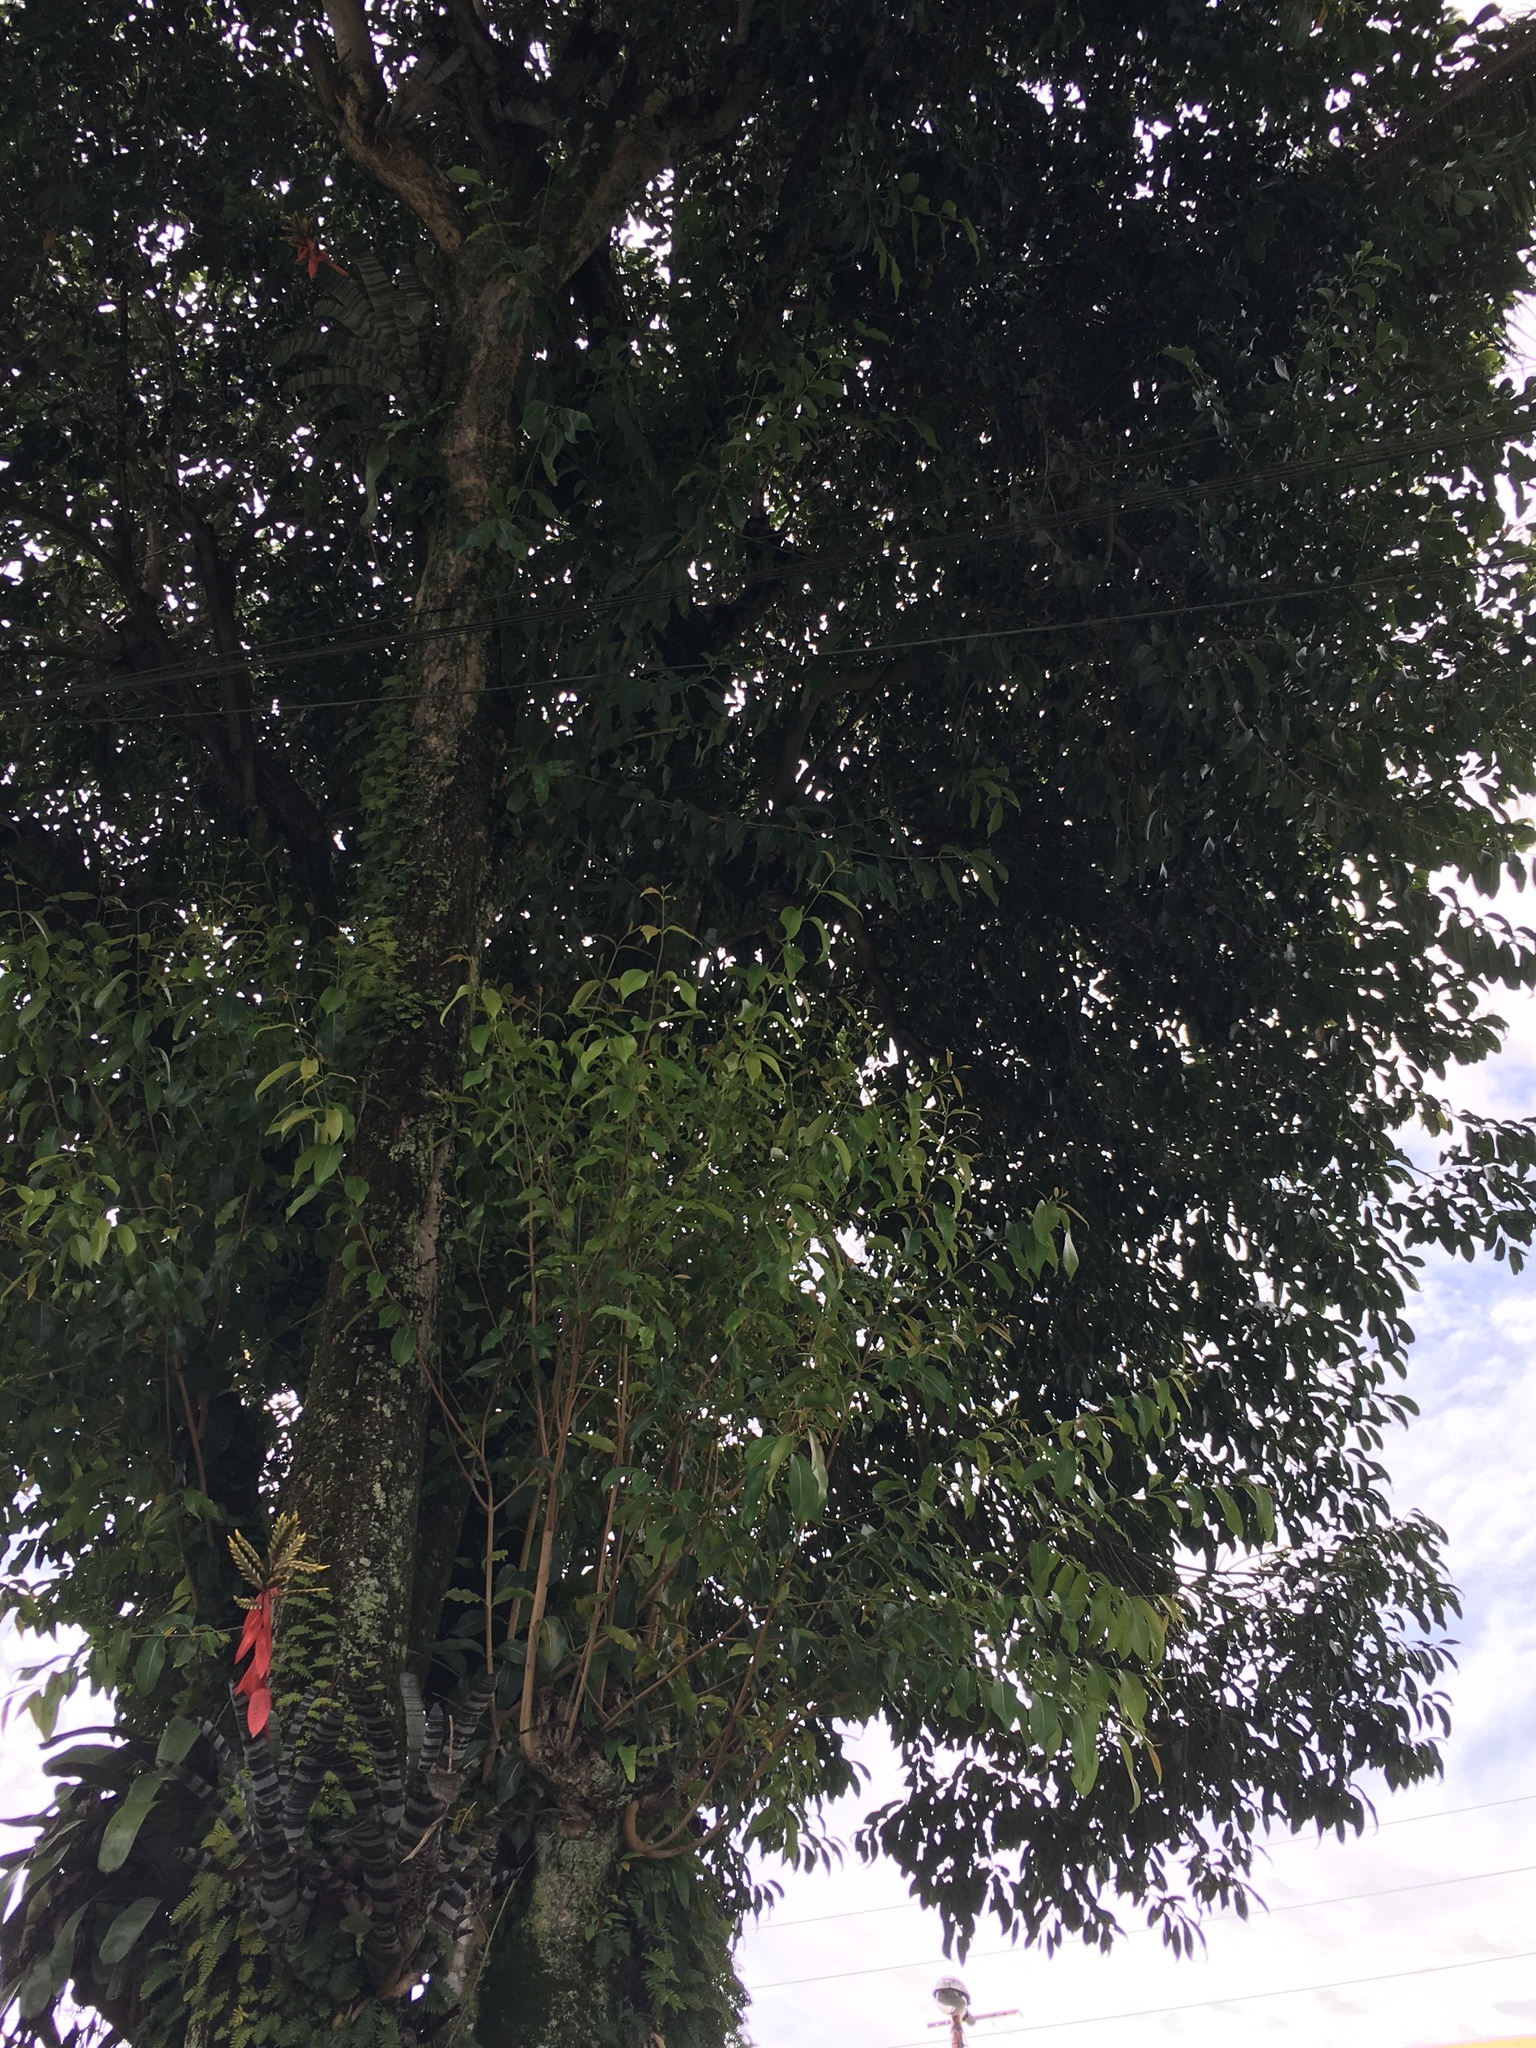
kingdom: Plantae
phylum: Tracheophyta
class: Magnoliopsida
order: Myrtales
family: Myrtaceae
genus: Syzygium
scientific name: Syzygium cumini
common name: Java plum
